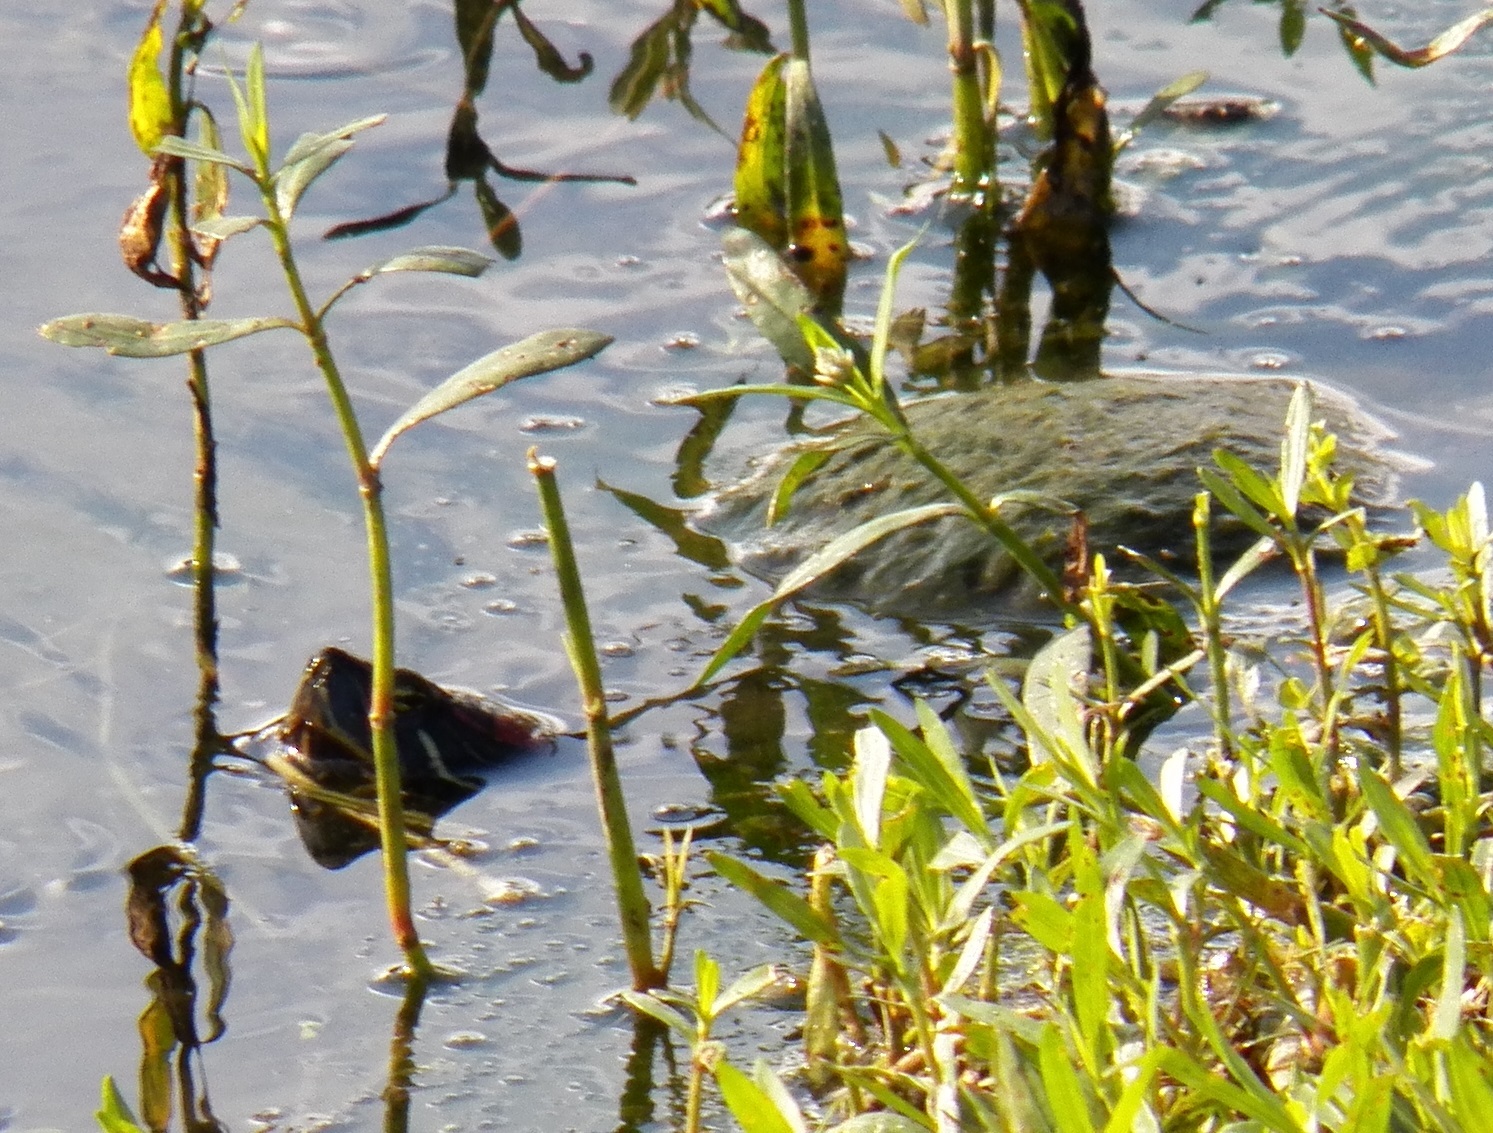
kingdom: Animalia
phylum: Chordata
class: Testudines
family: Emydidae
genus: Trachemys
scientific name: Trachemys scripta
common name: Slider
